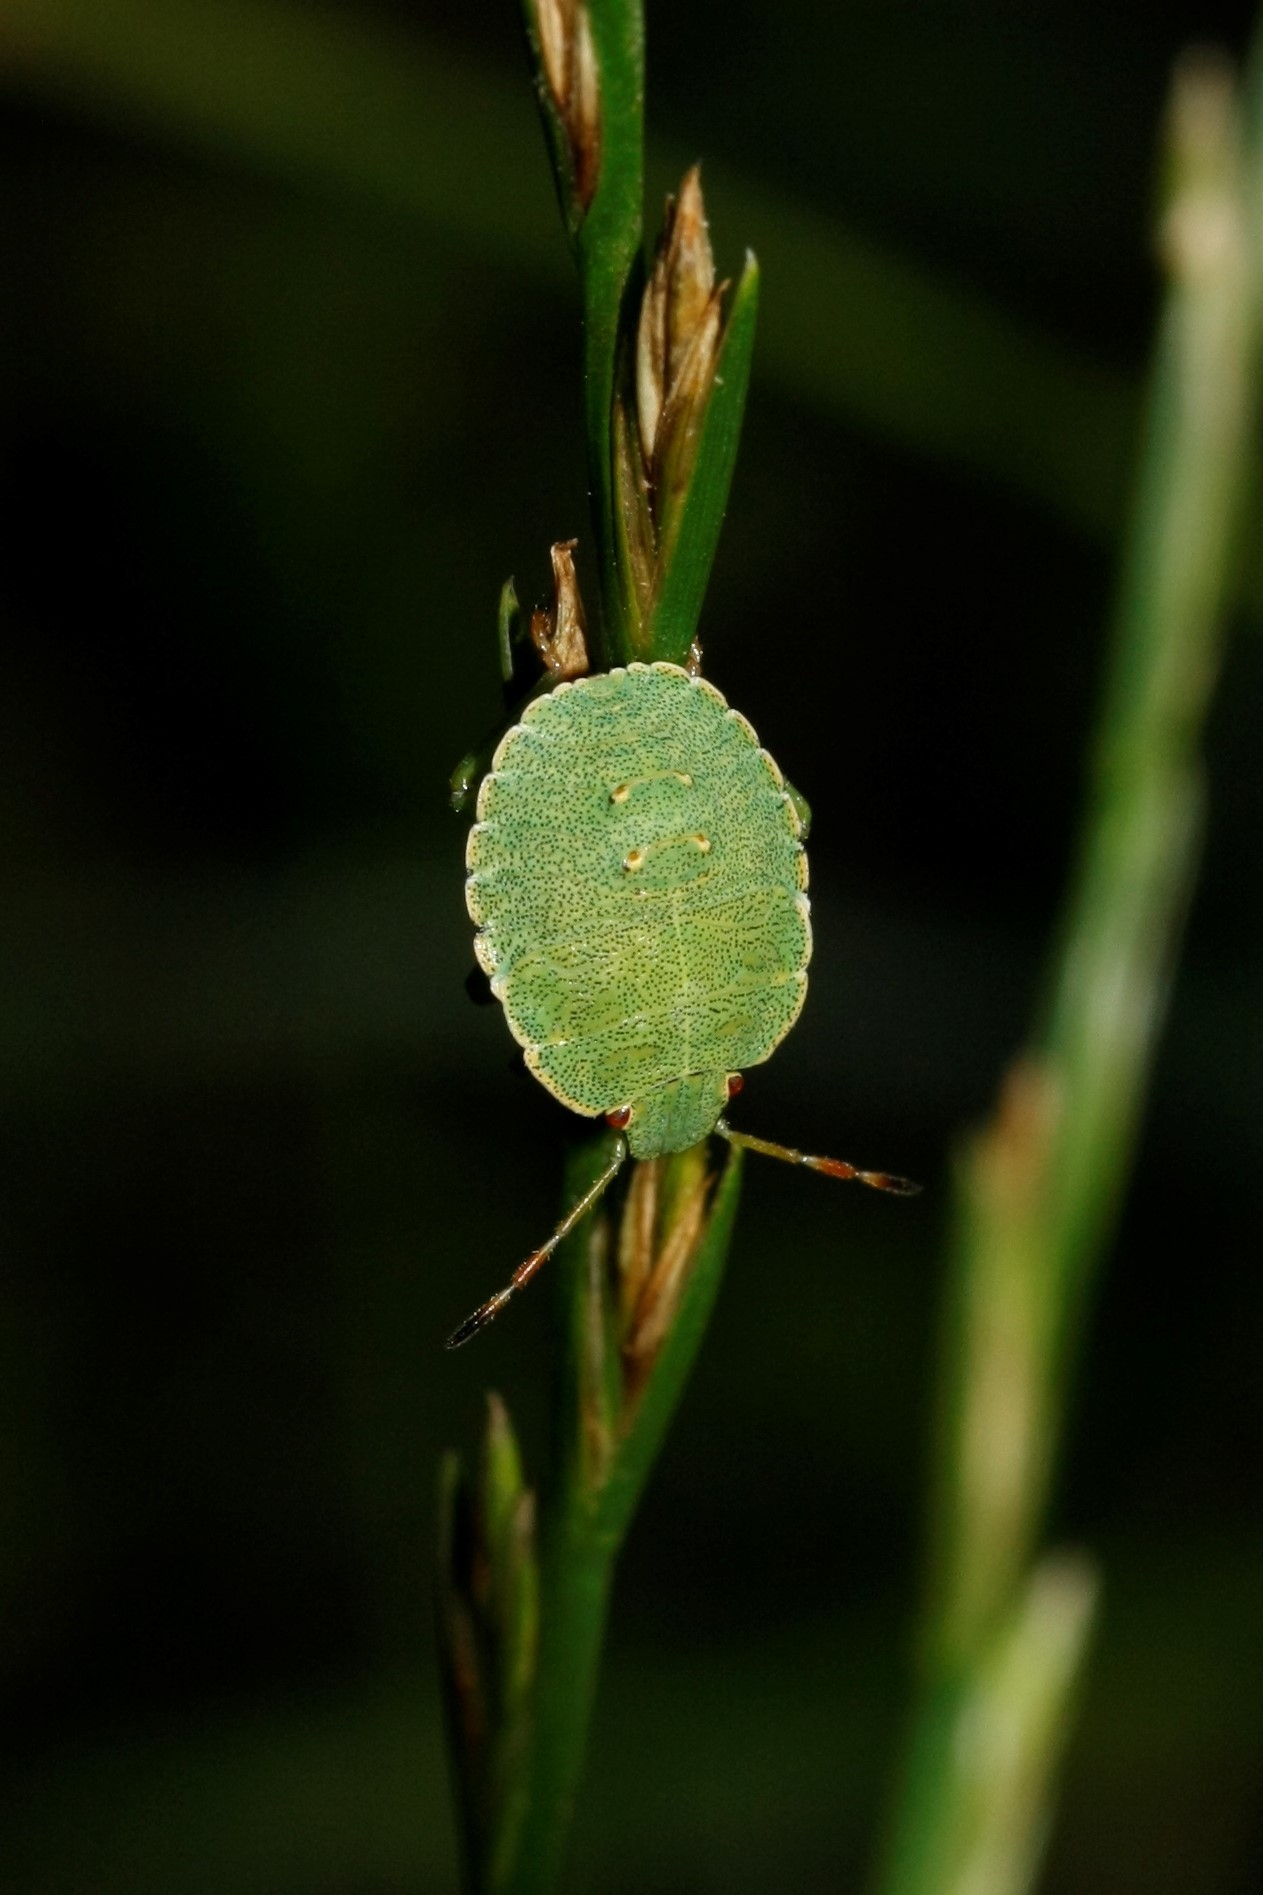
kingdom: Animalia
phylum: Arthropoda
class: Insecta
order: Hemiptera
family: Pentatomidae
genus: Palomena
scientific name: Palomena prasina
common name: Green shieldbug
